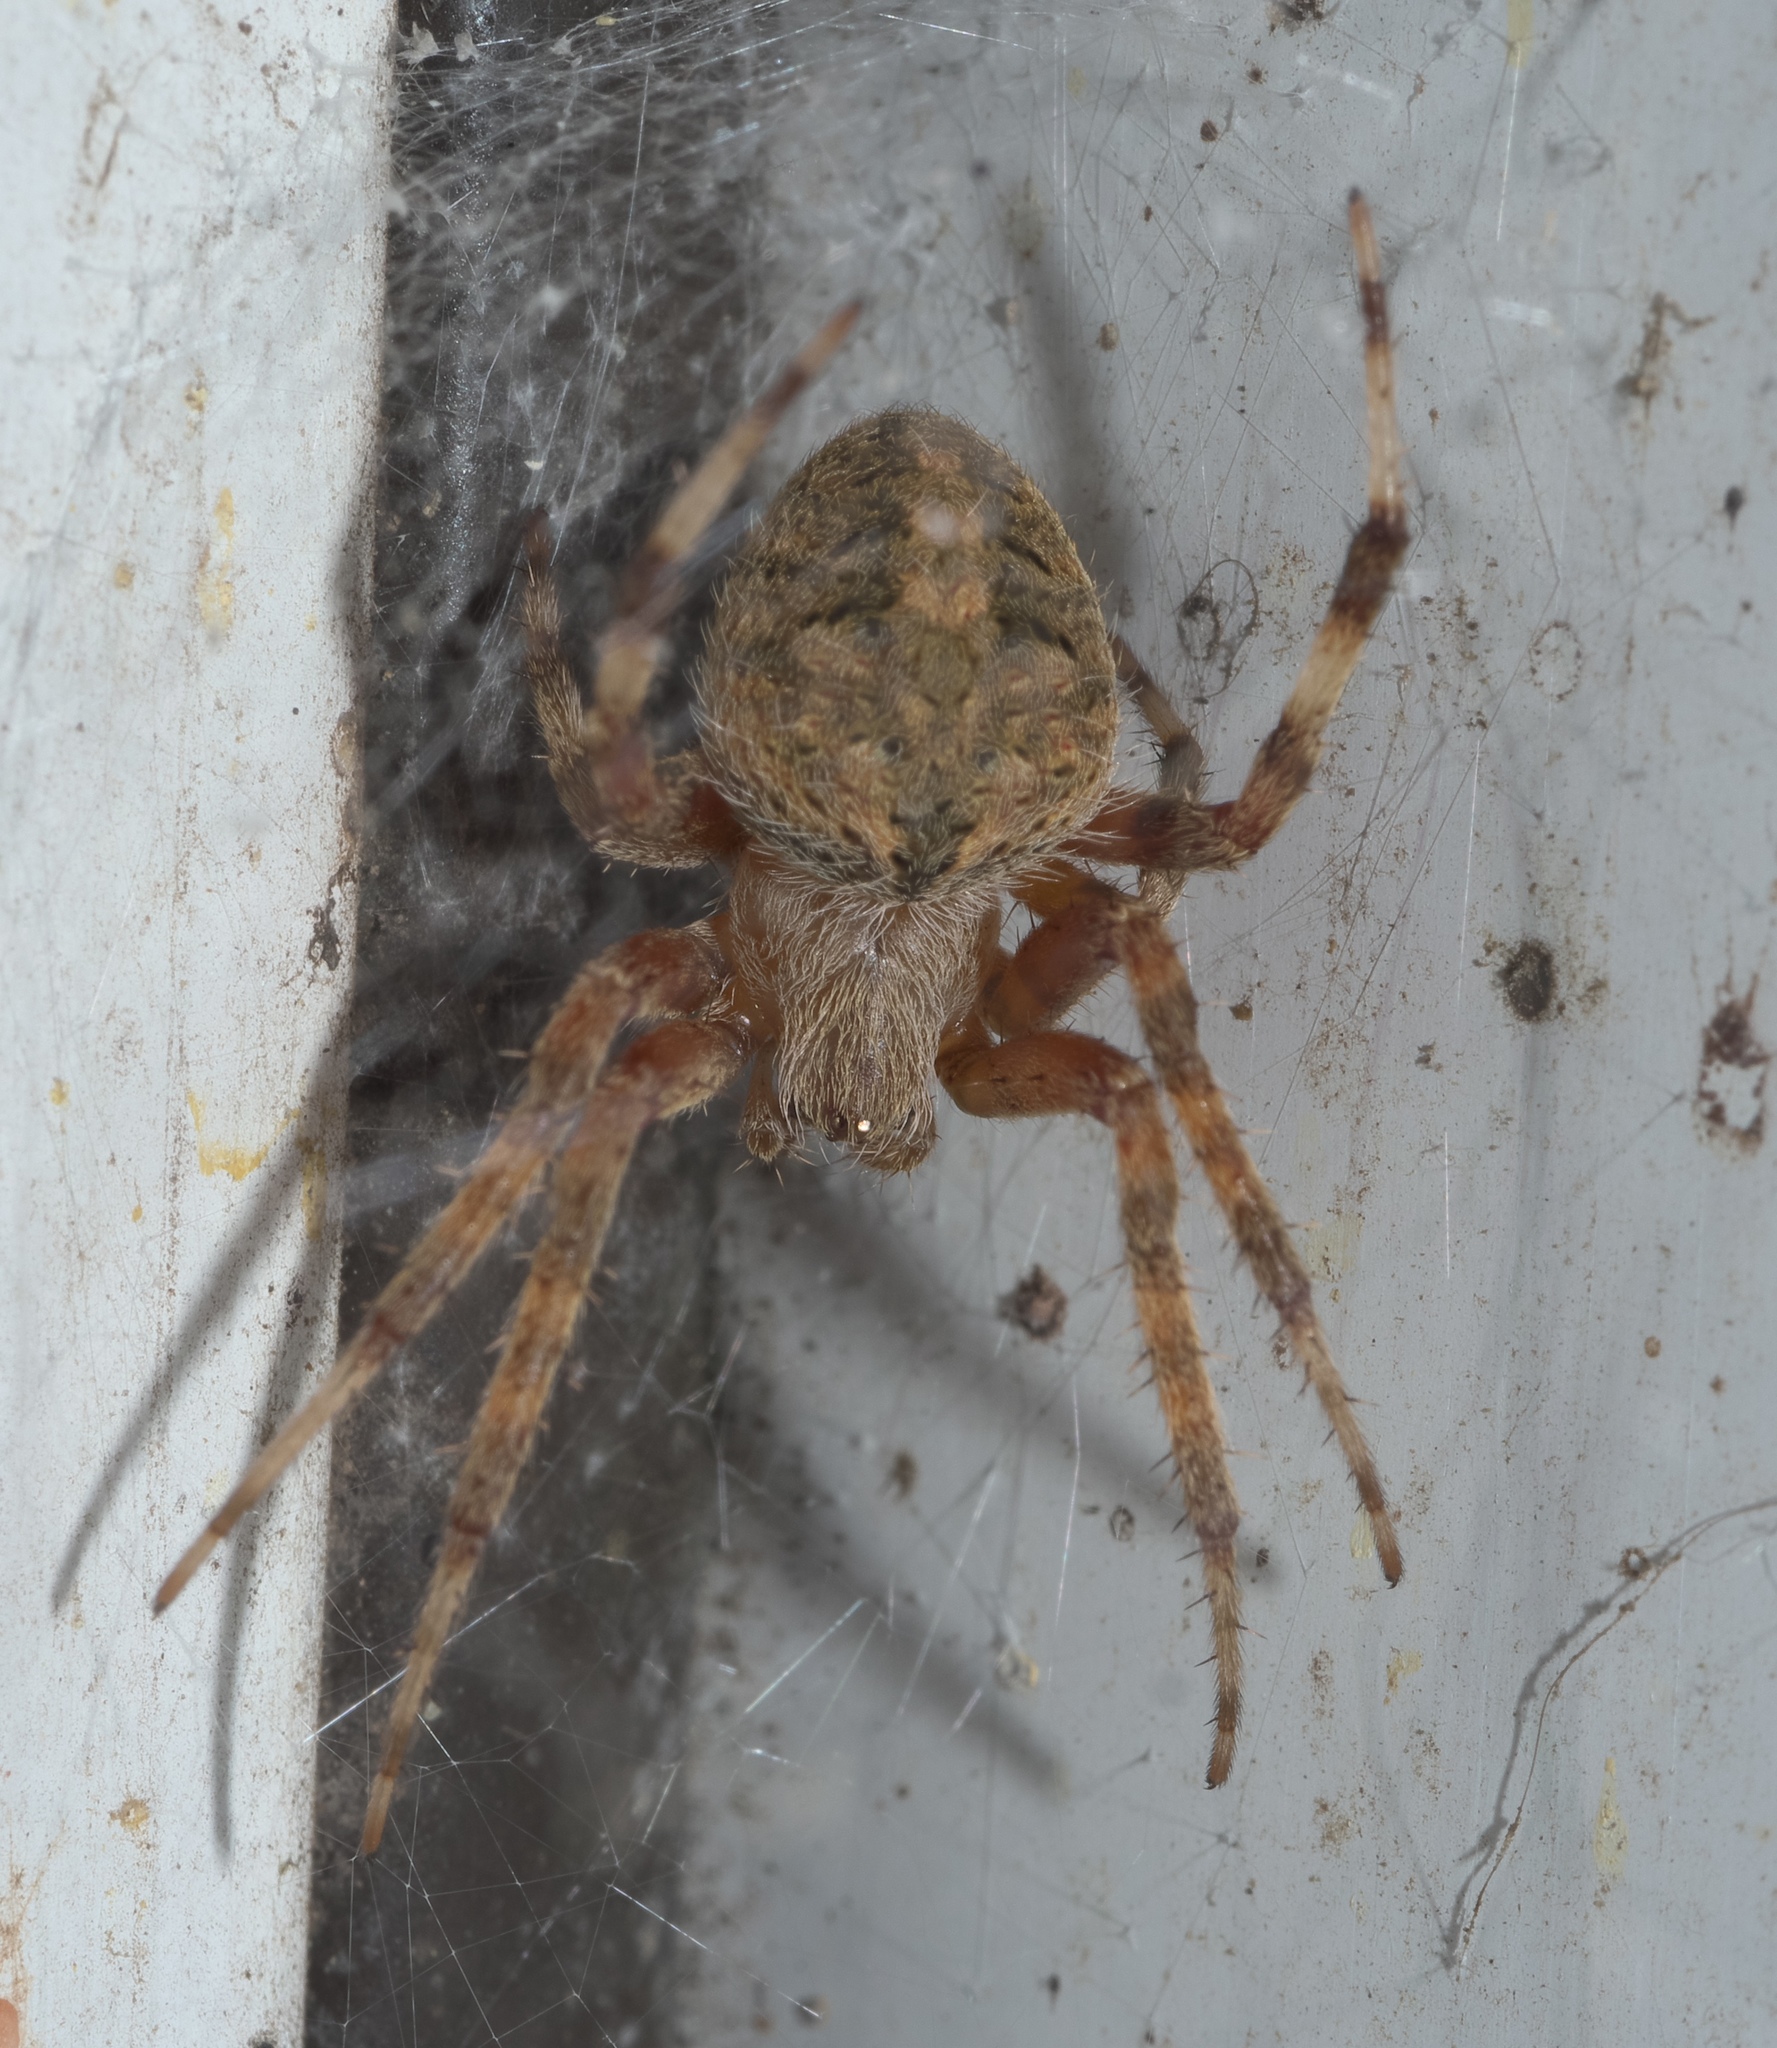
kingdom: Animalia
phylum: Arthropoda
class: Arachnida
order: Araneae
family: Araneidae
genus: Neoscona
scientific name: Neoscona crucifera
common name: Spotted orbweaver
